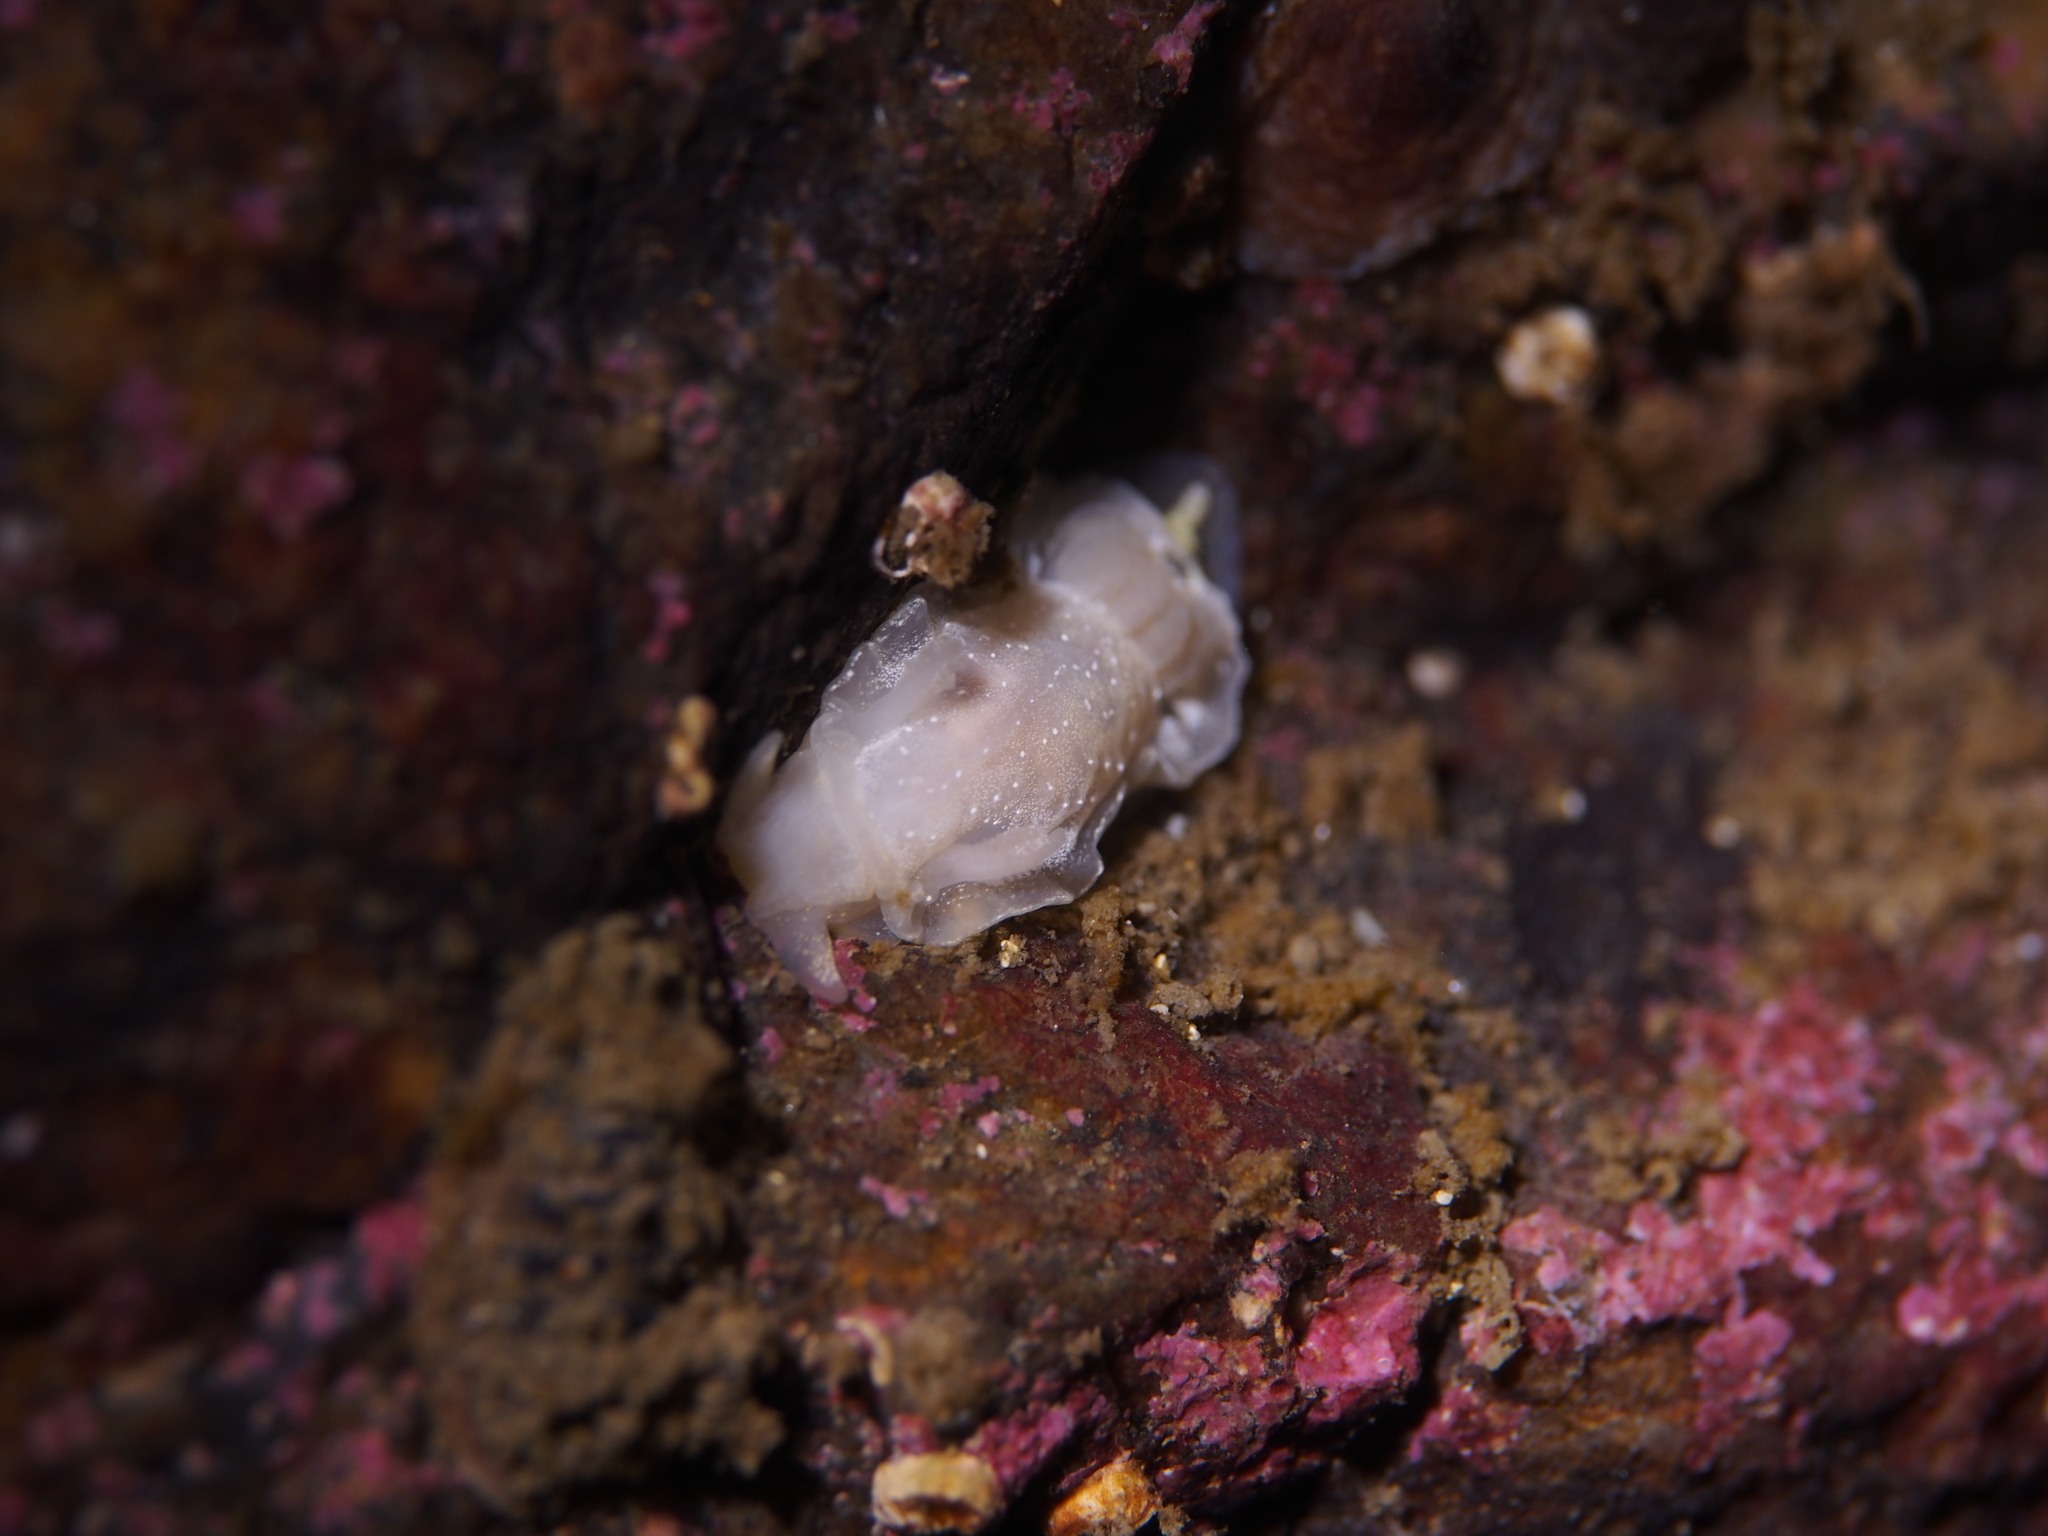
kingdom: Animalia
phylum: Mollusca
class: Gastropoda
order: Nudibranchia
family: Goniodorididae
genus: Okenia
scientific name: Okenia
